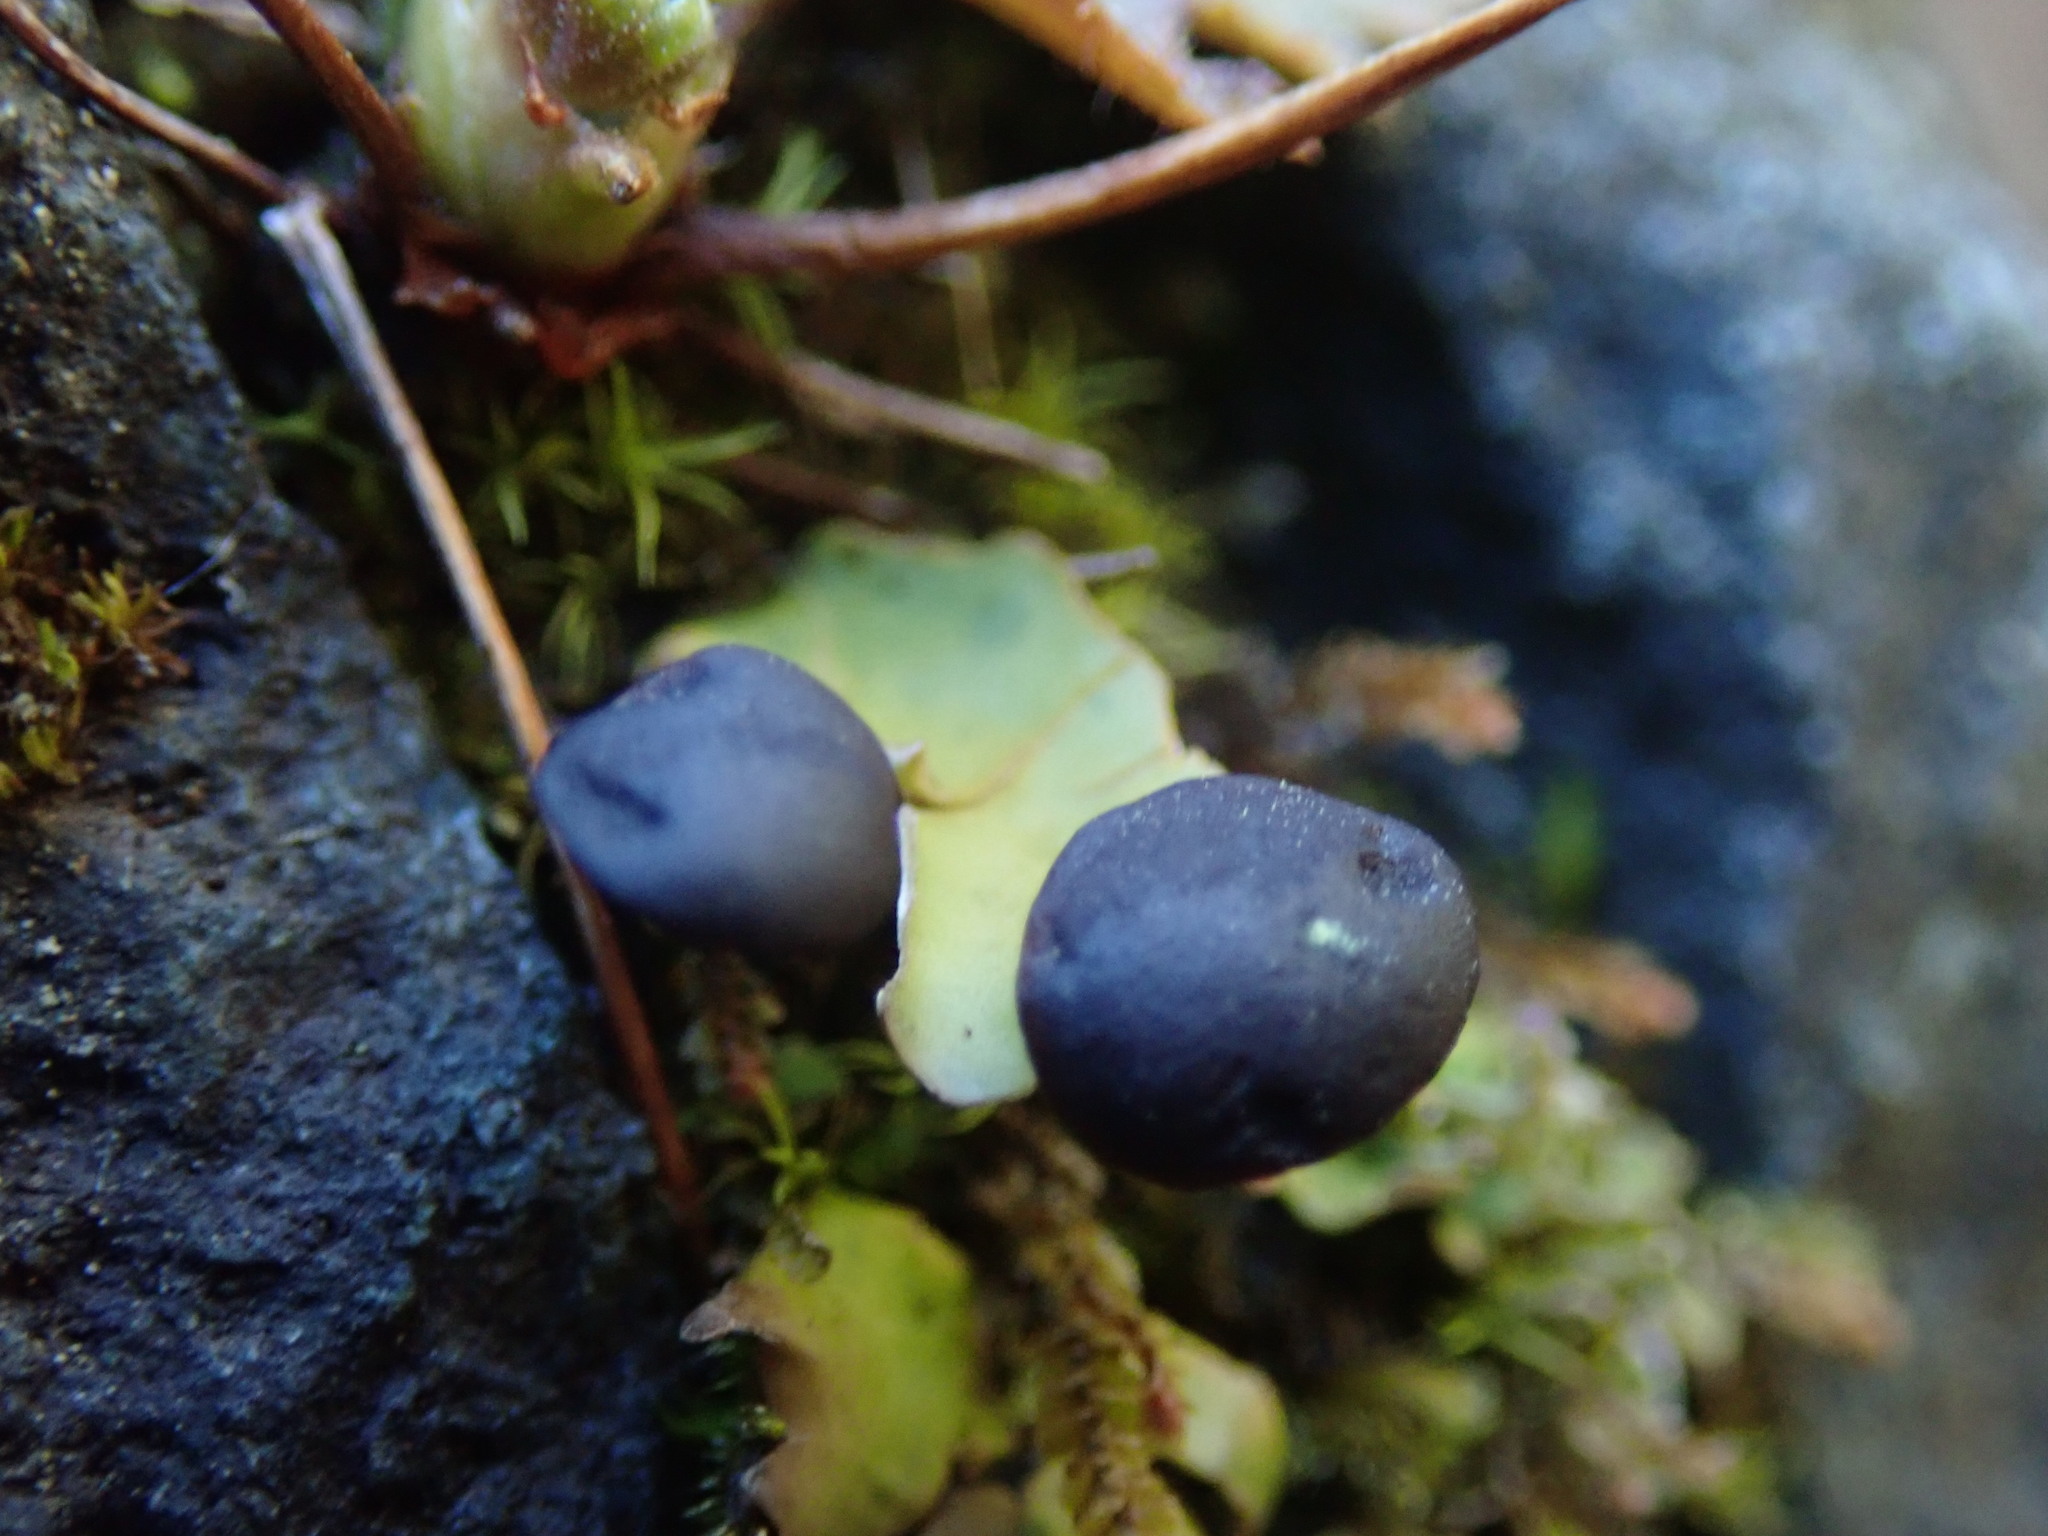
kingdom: Fungi
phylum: Ascomycota
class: Lecanoromycetes
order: Peltigerales
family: Peltigeraceae
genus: Peltigera
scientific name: Peltigera venosa
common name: Pixie gowns lichen
